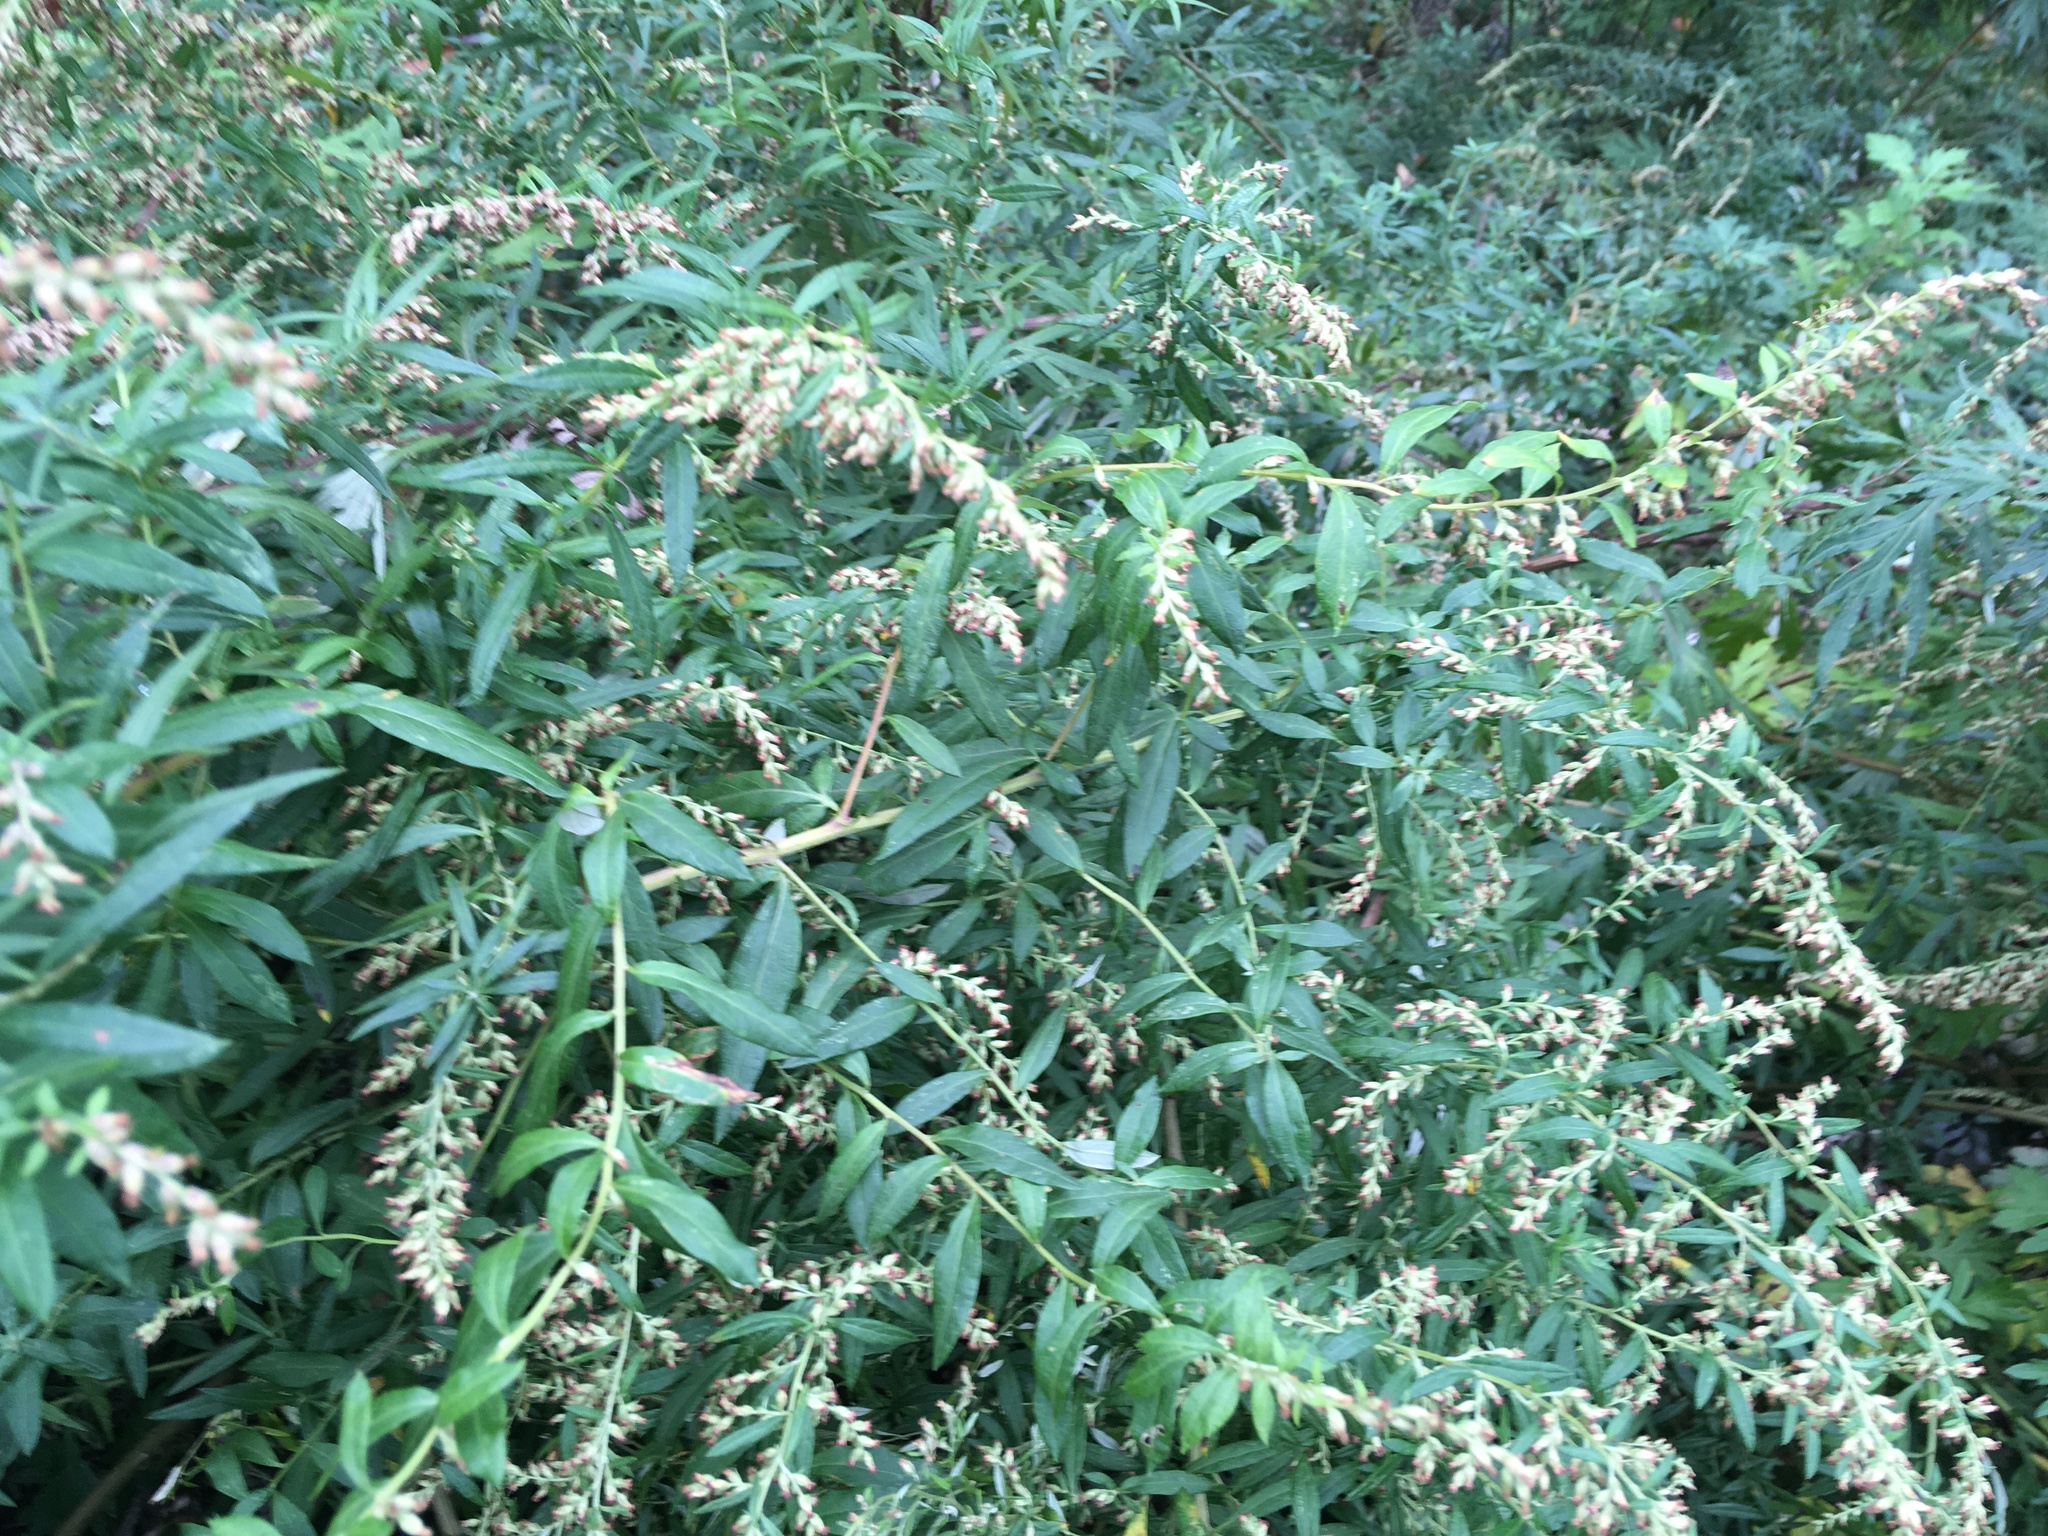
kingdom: Plantae
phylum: Tracheophyta
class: Magnoliopsida
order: Asterales
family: Asteraceae
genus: Artemisia
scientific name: Artemisia vulgaris
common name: Mugwort
